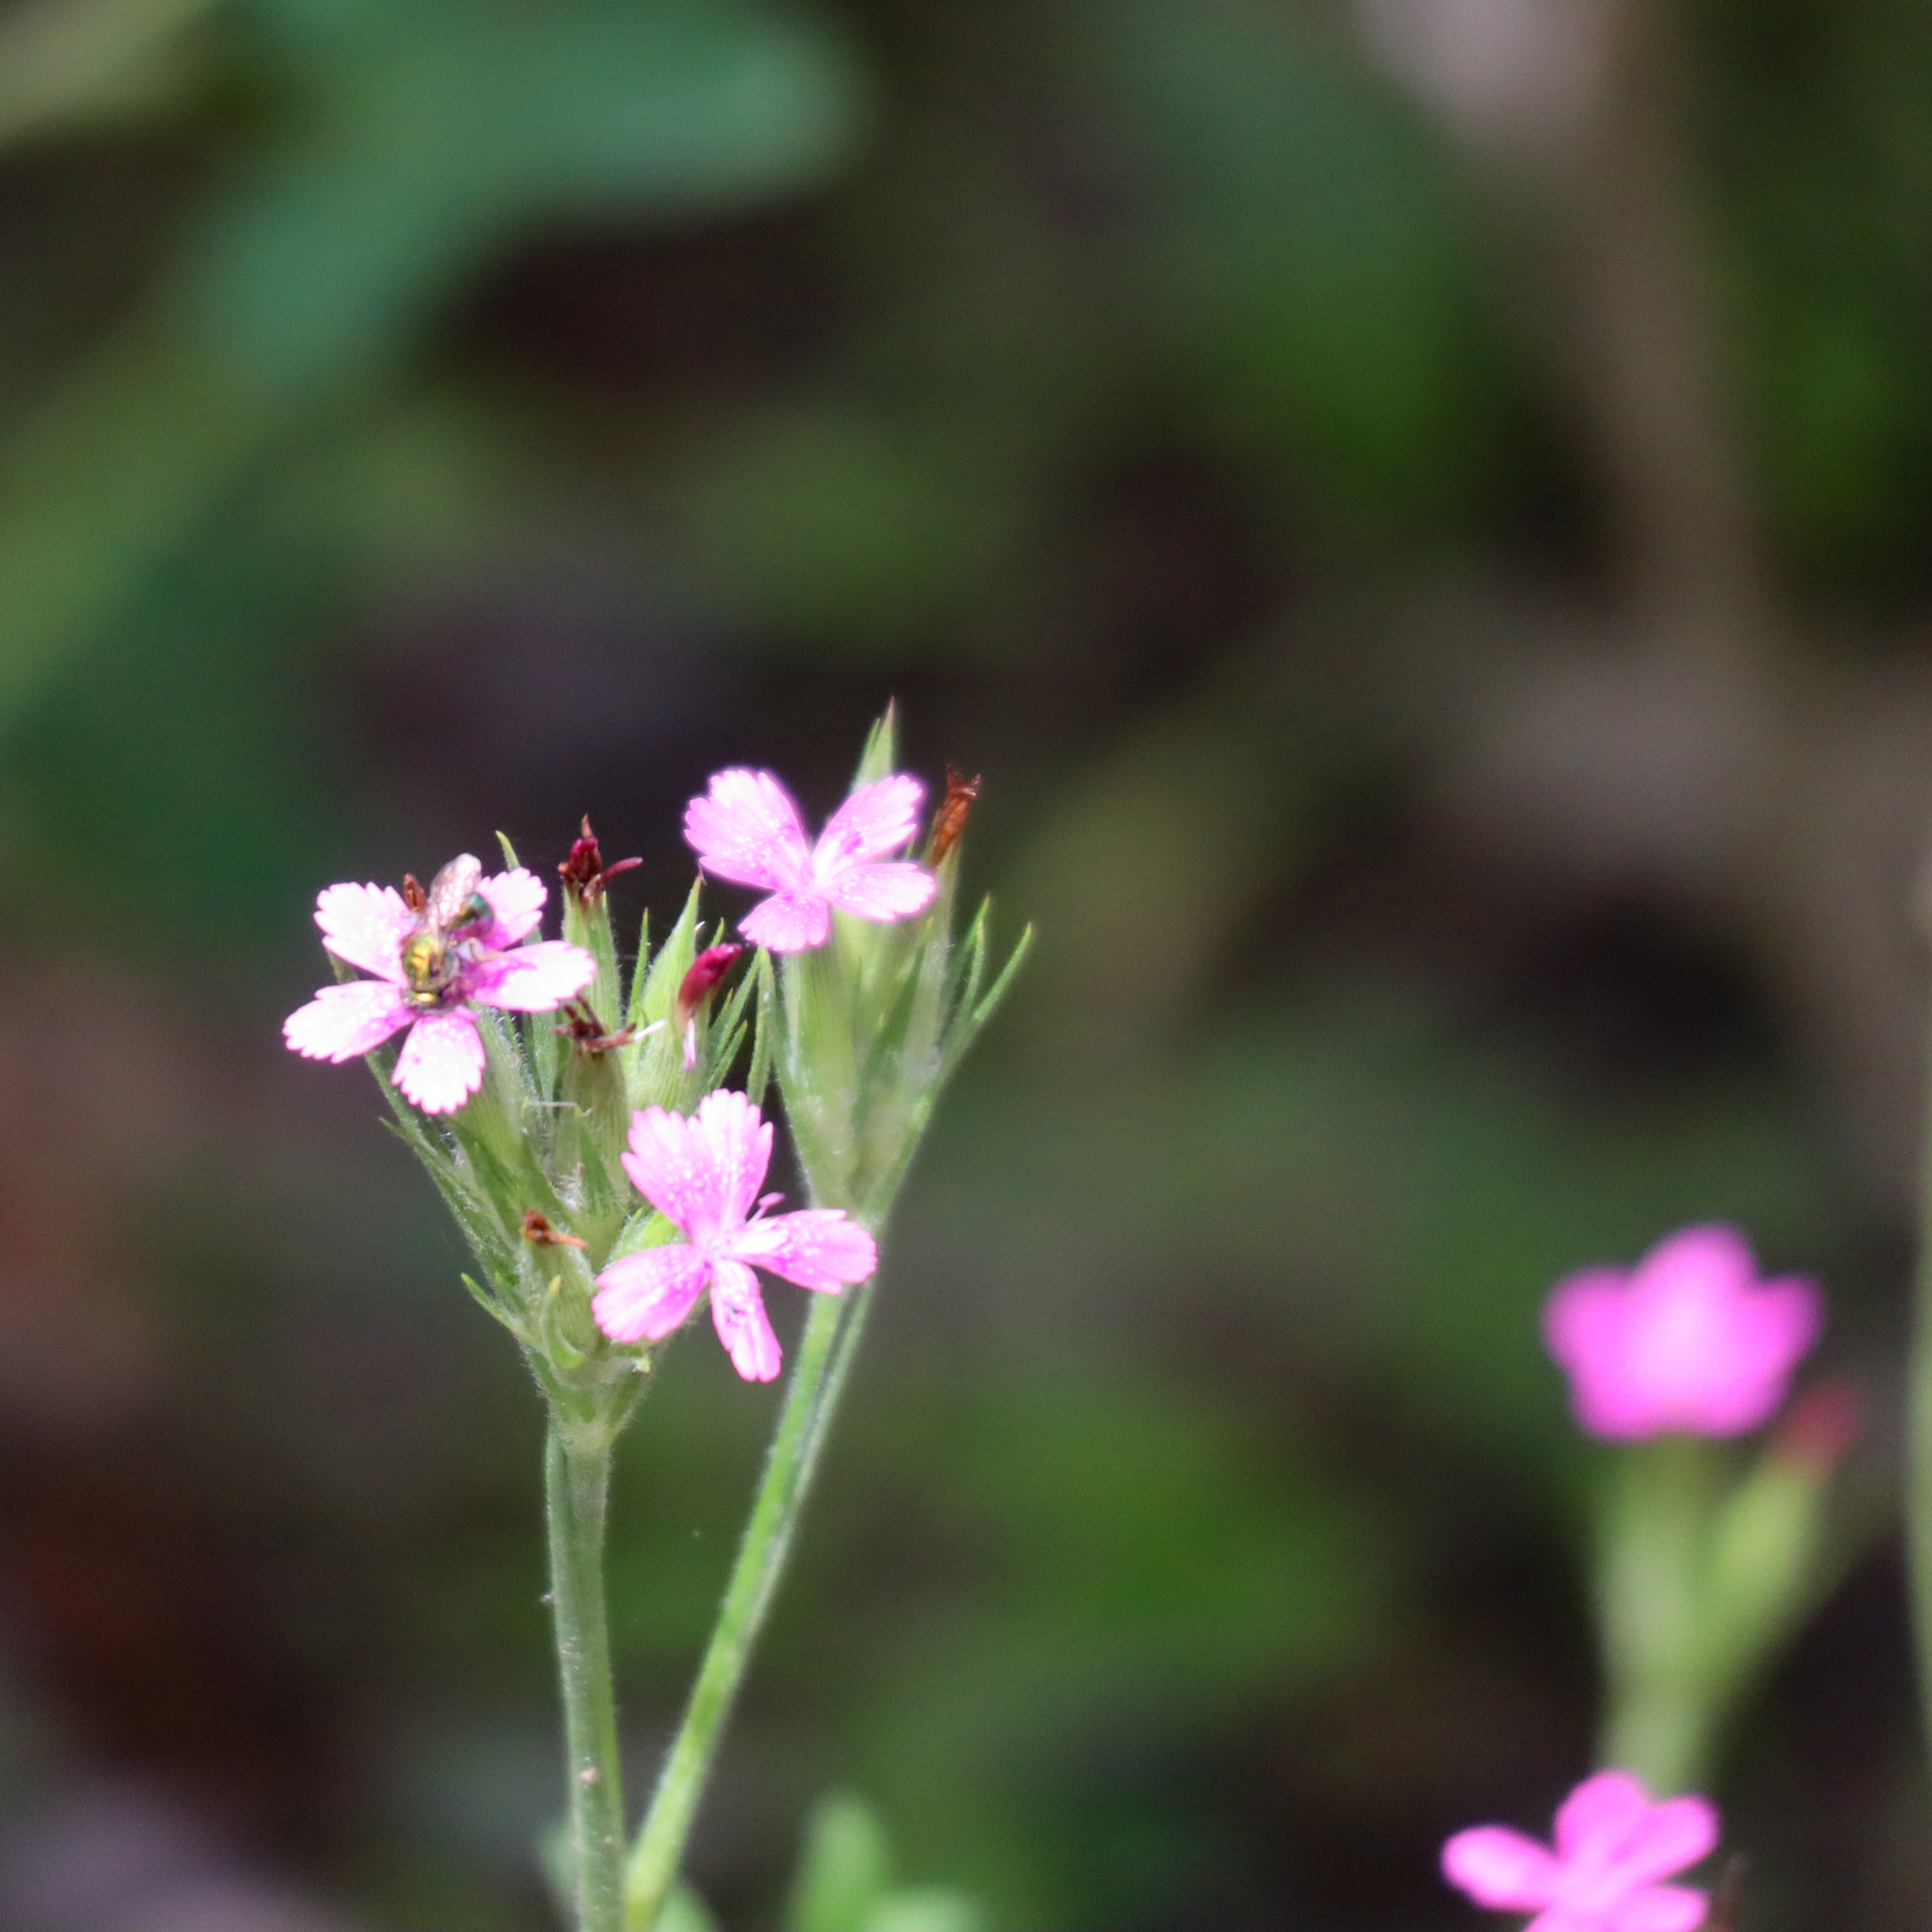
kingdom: Plantae
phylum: Tracheophyta
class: Magnoliopsida
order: Caryophyllales
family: Caryophyllaceae
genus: Dianthus
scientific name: Dianthus armeria
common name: Deptford pink
